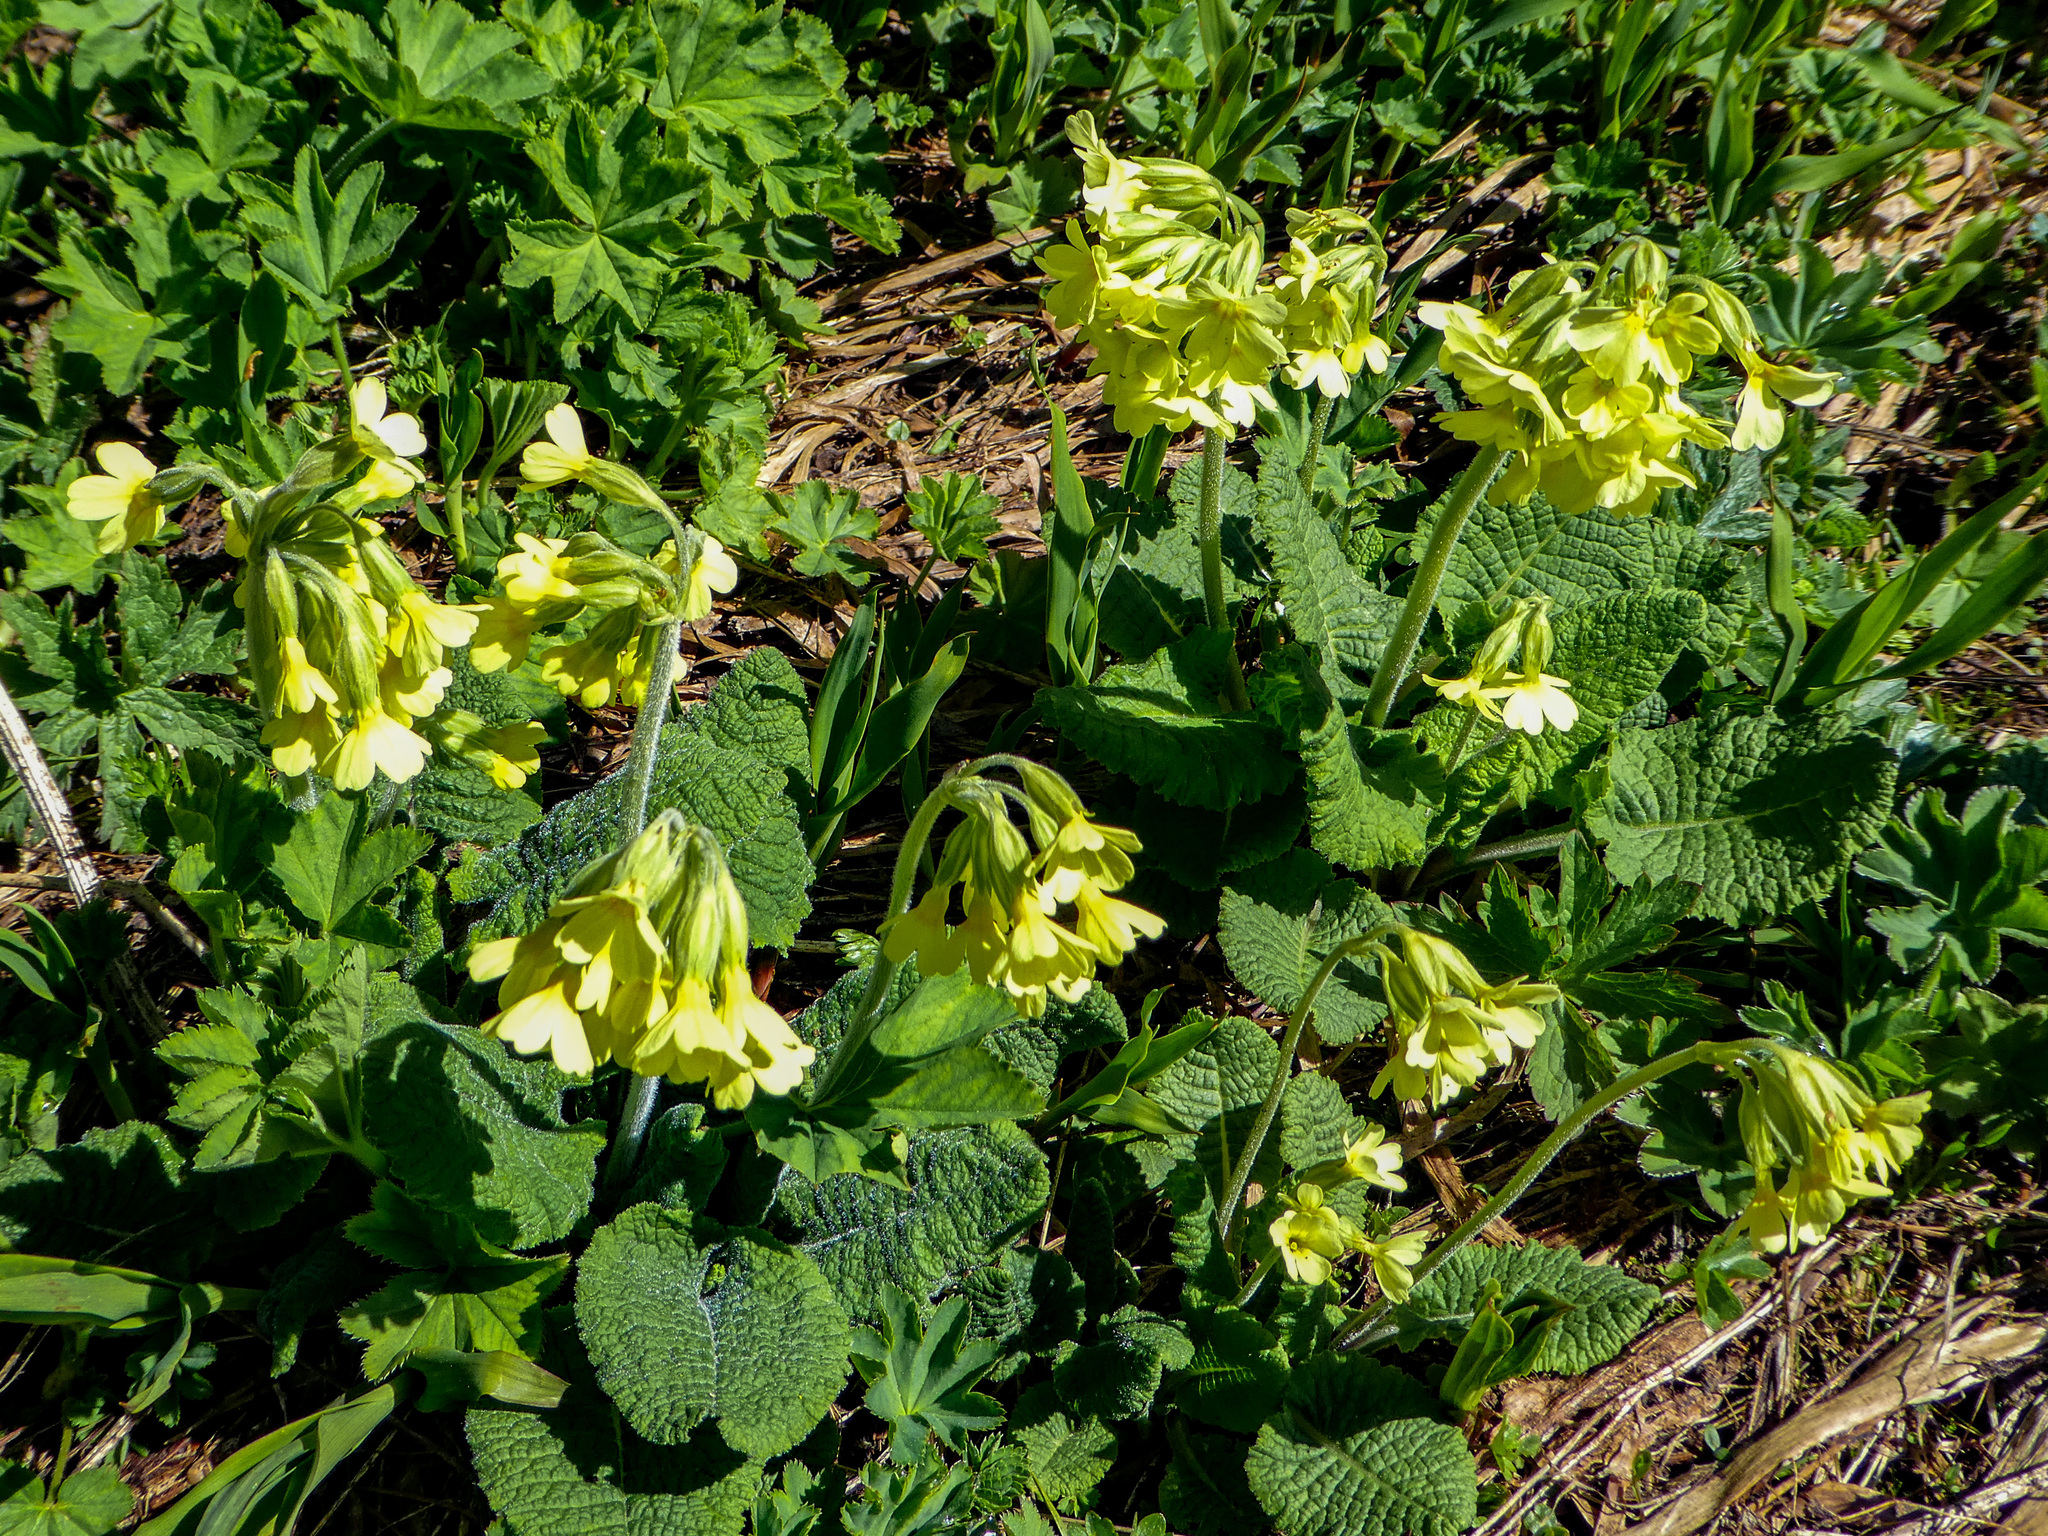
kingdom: Plantae
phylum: Tracheophyta
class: Magnoliopsida
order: Ericales
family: Primulaceae
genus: Primula
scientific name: Primula elatior
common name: Oxlip
